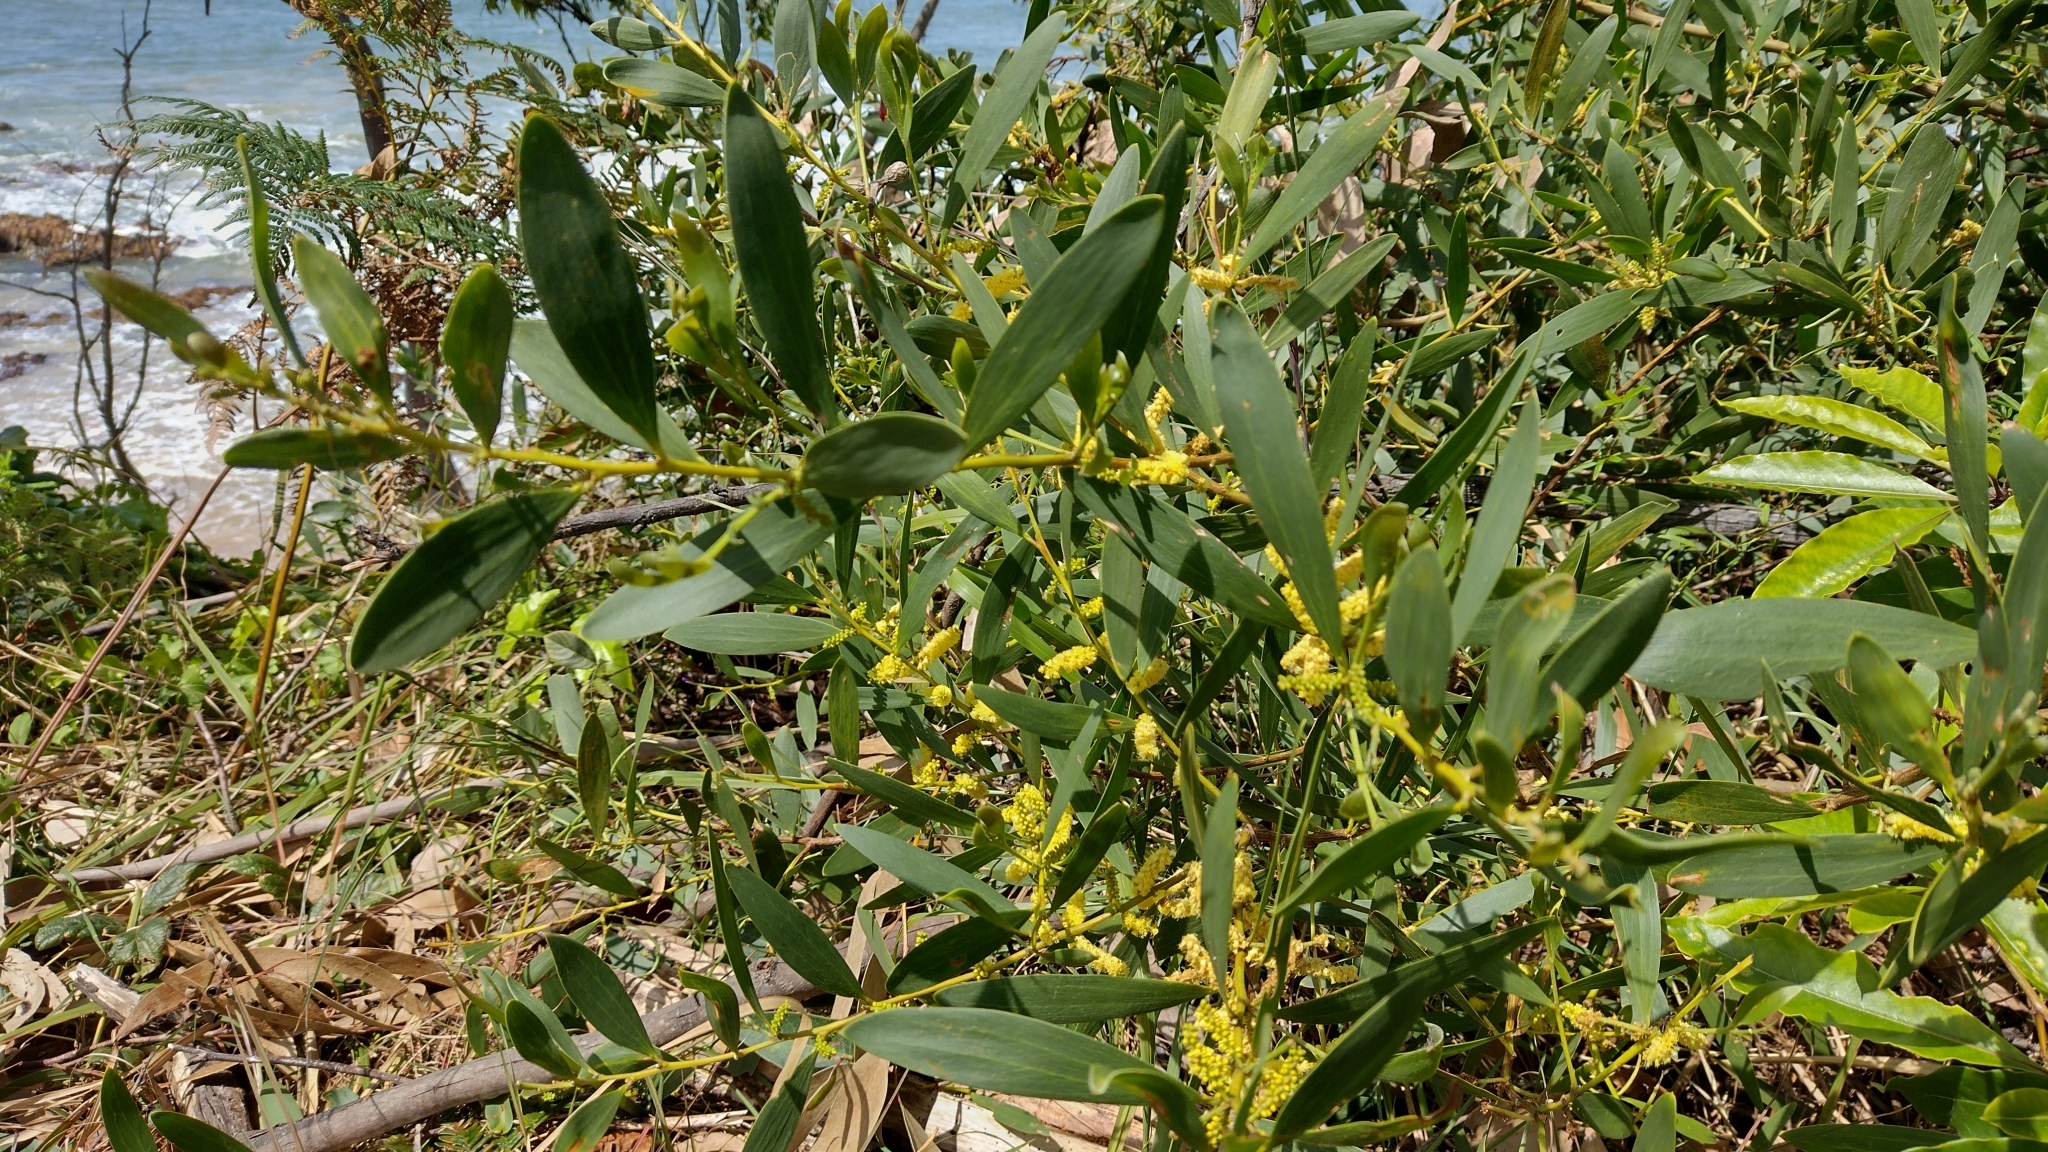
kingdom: Plantae
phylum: Tracheophyta
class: Magnoliopsida
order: Fabales
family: Fabaceae
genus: Acacia
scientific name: Acacia longifolia
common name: Sydney golden wattle
